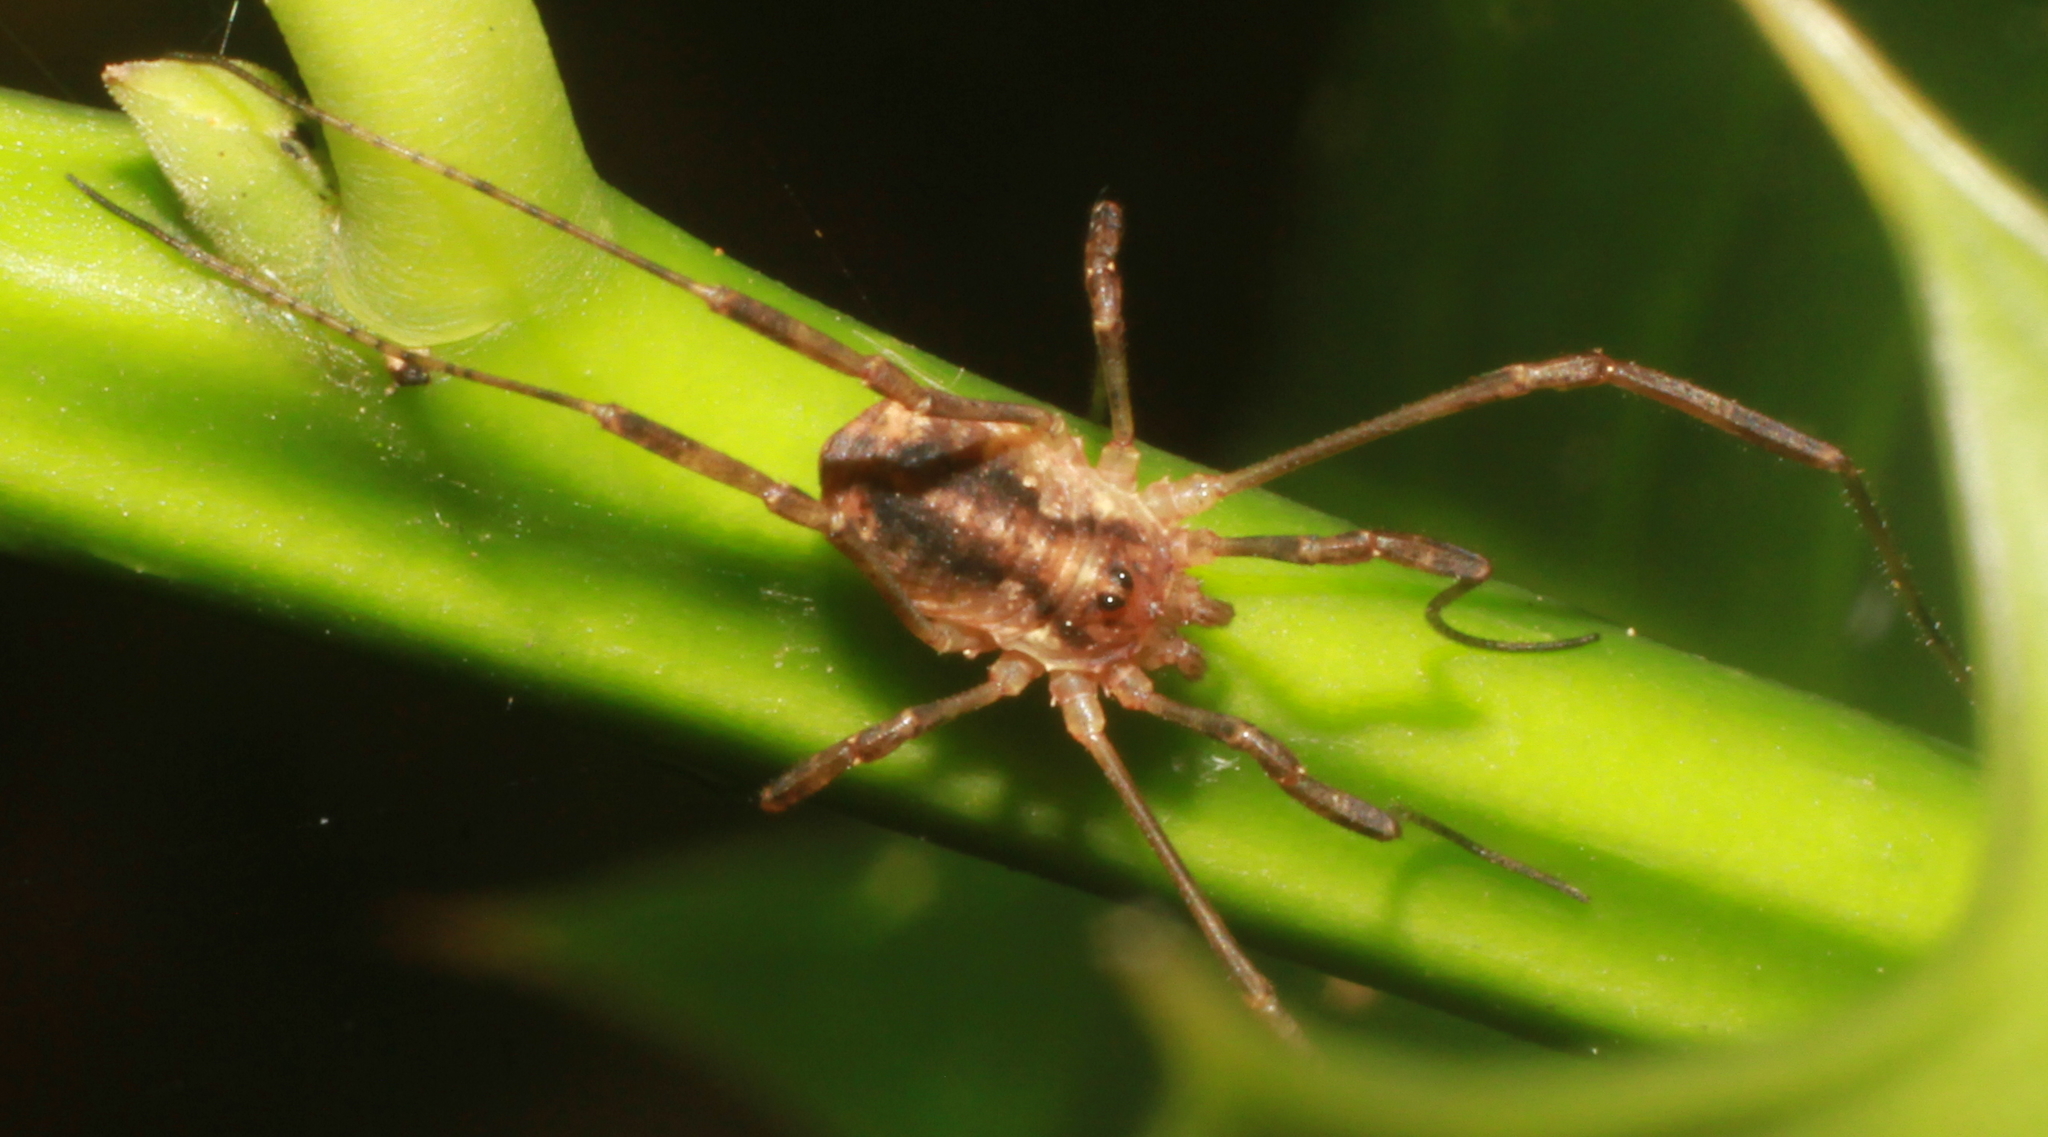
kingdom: Animalia
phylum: Arthropoda
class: Arachnida
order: Opiliones
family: Phalangiidae
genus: Paroligolophus
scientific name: Paroligolophus agrestis
